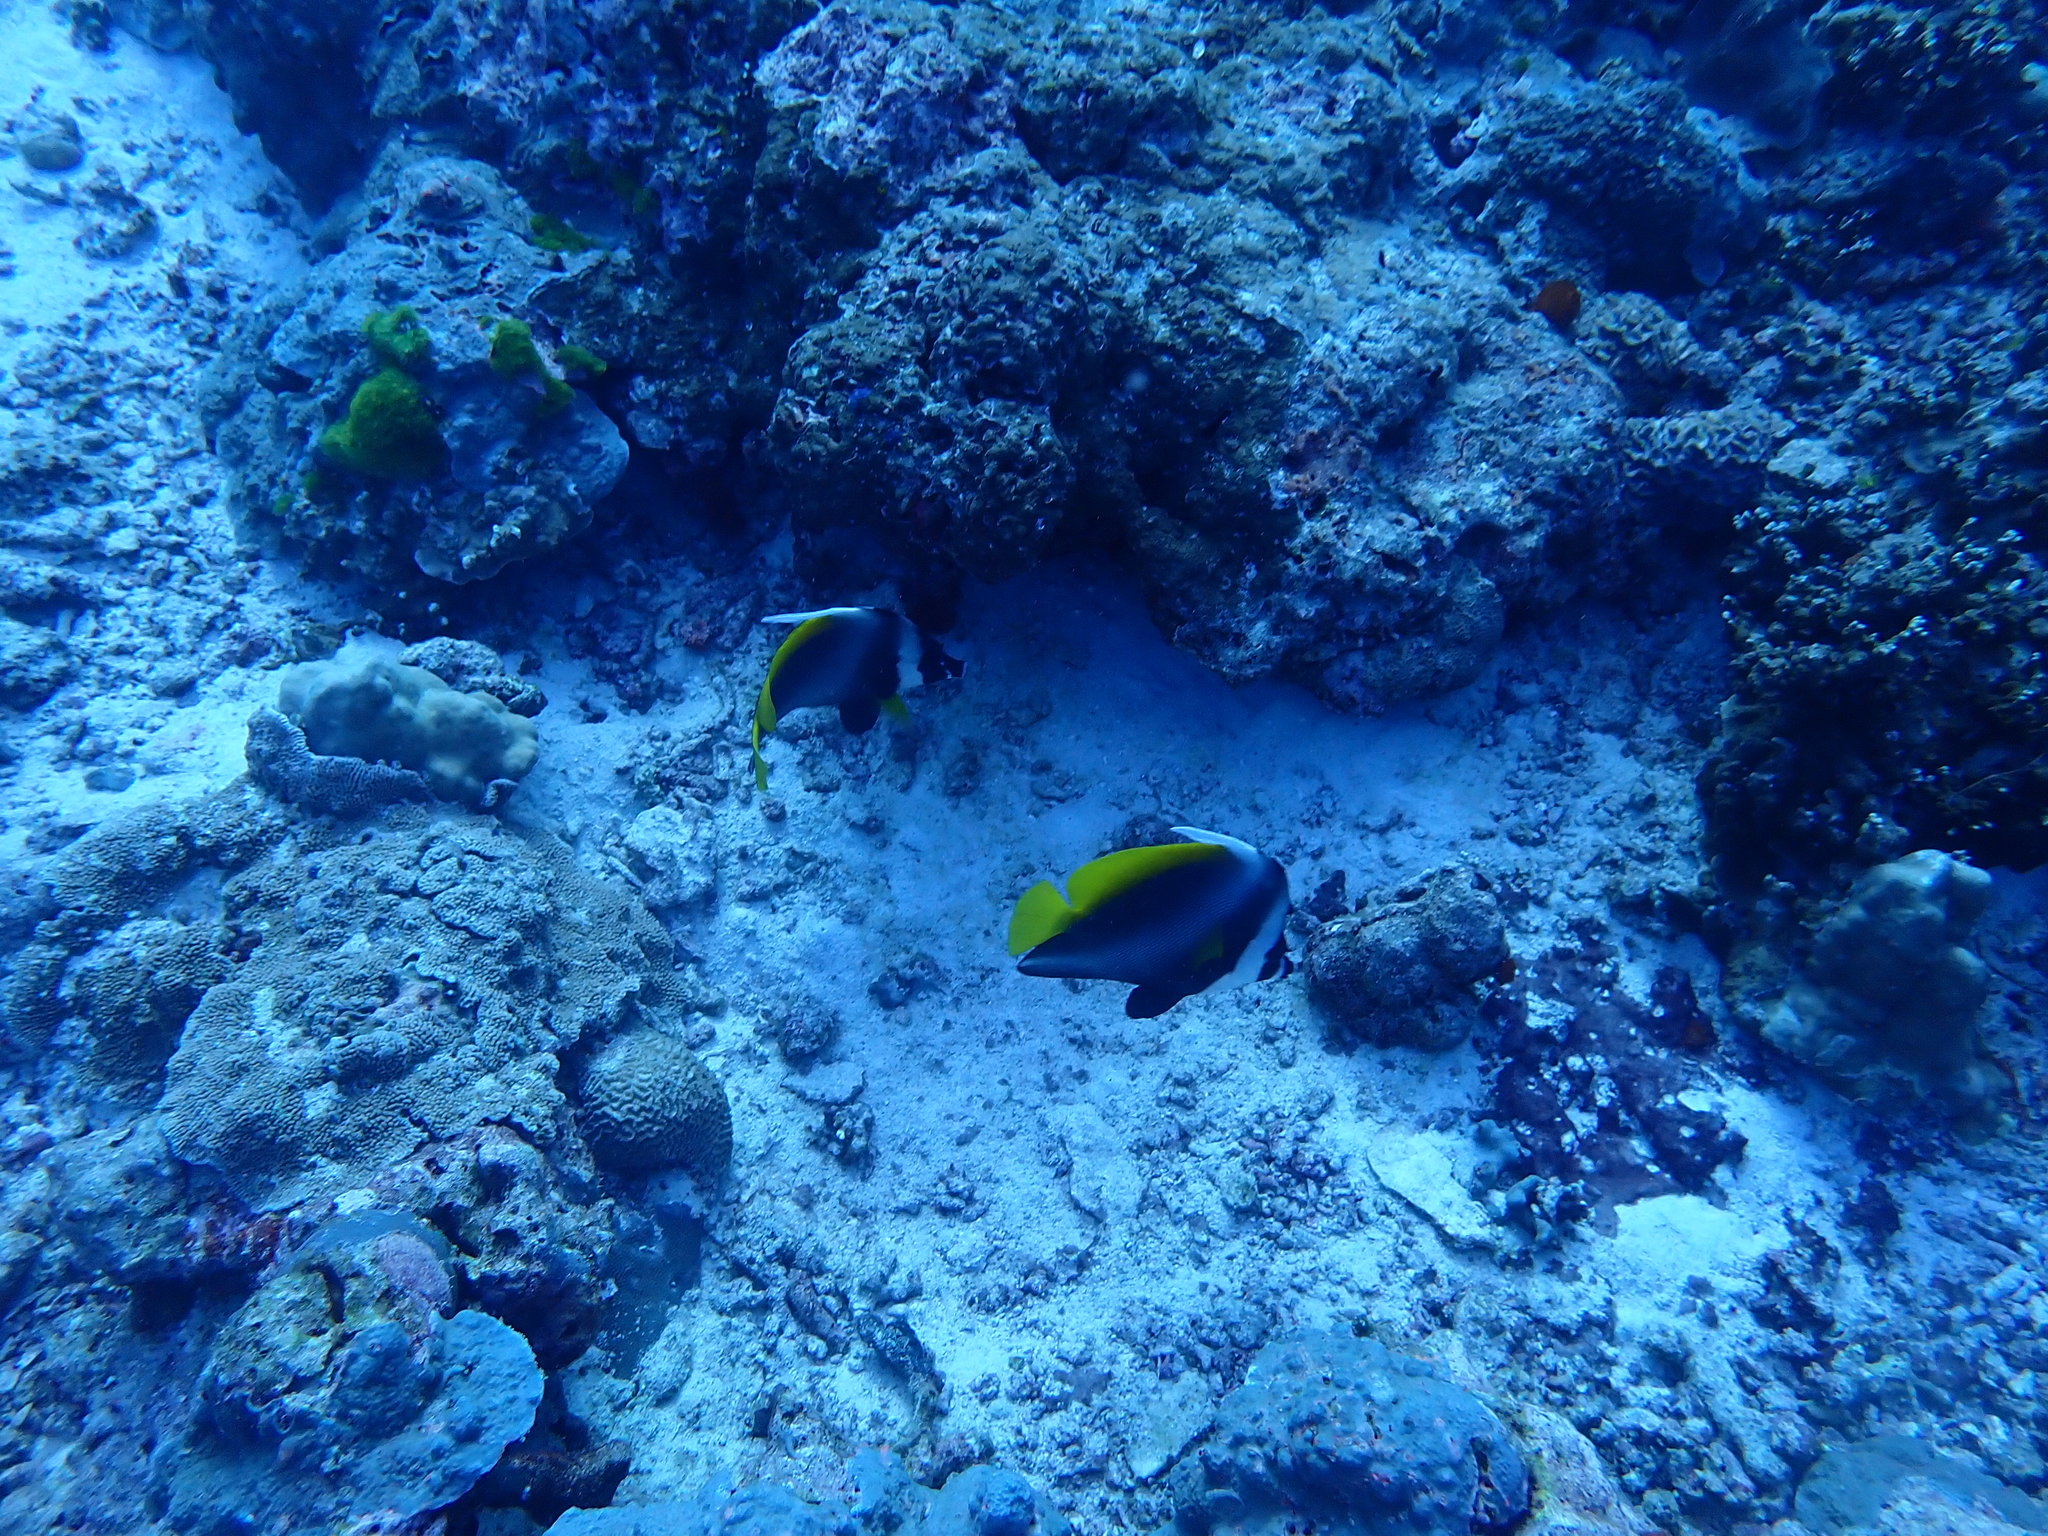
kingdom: Animalia
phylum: Chordata
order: Perciformes
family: Chaetodontidae
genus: Heniochus
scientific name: Heniochus singularius
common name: Singular bannerfish
